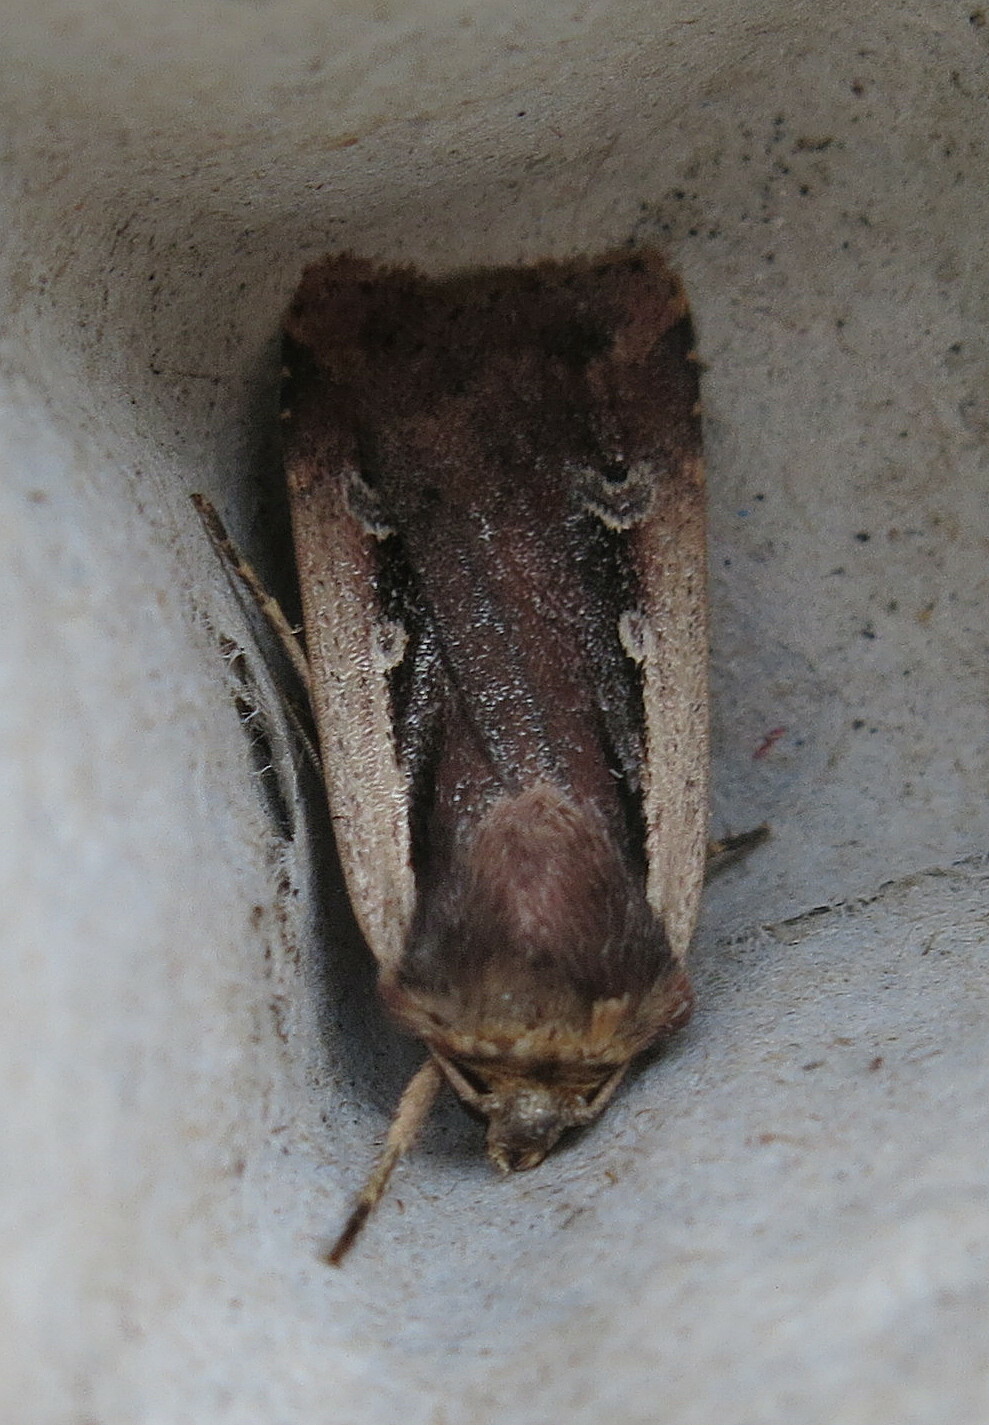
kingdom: Animalia
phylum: Arthropoda
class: Insecta
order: Lepidoptera
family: Noctuidae
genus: Ochropleura
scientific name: Ochropleura plecta
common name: Flame shoulder
